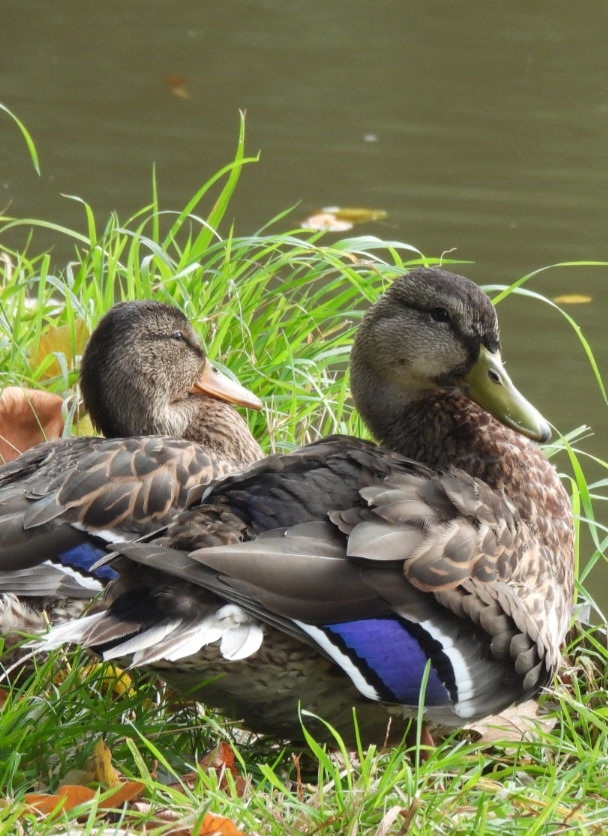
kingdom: Animalia
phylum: Chordata
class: Aves
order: Anseriformes
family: Anatidae
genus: Anas
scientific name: Anas platyrhynchos
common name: Mallard
